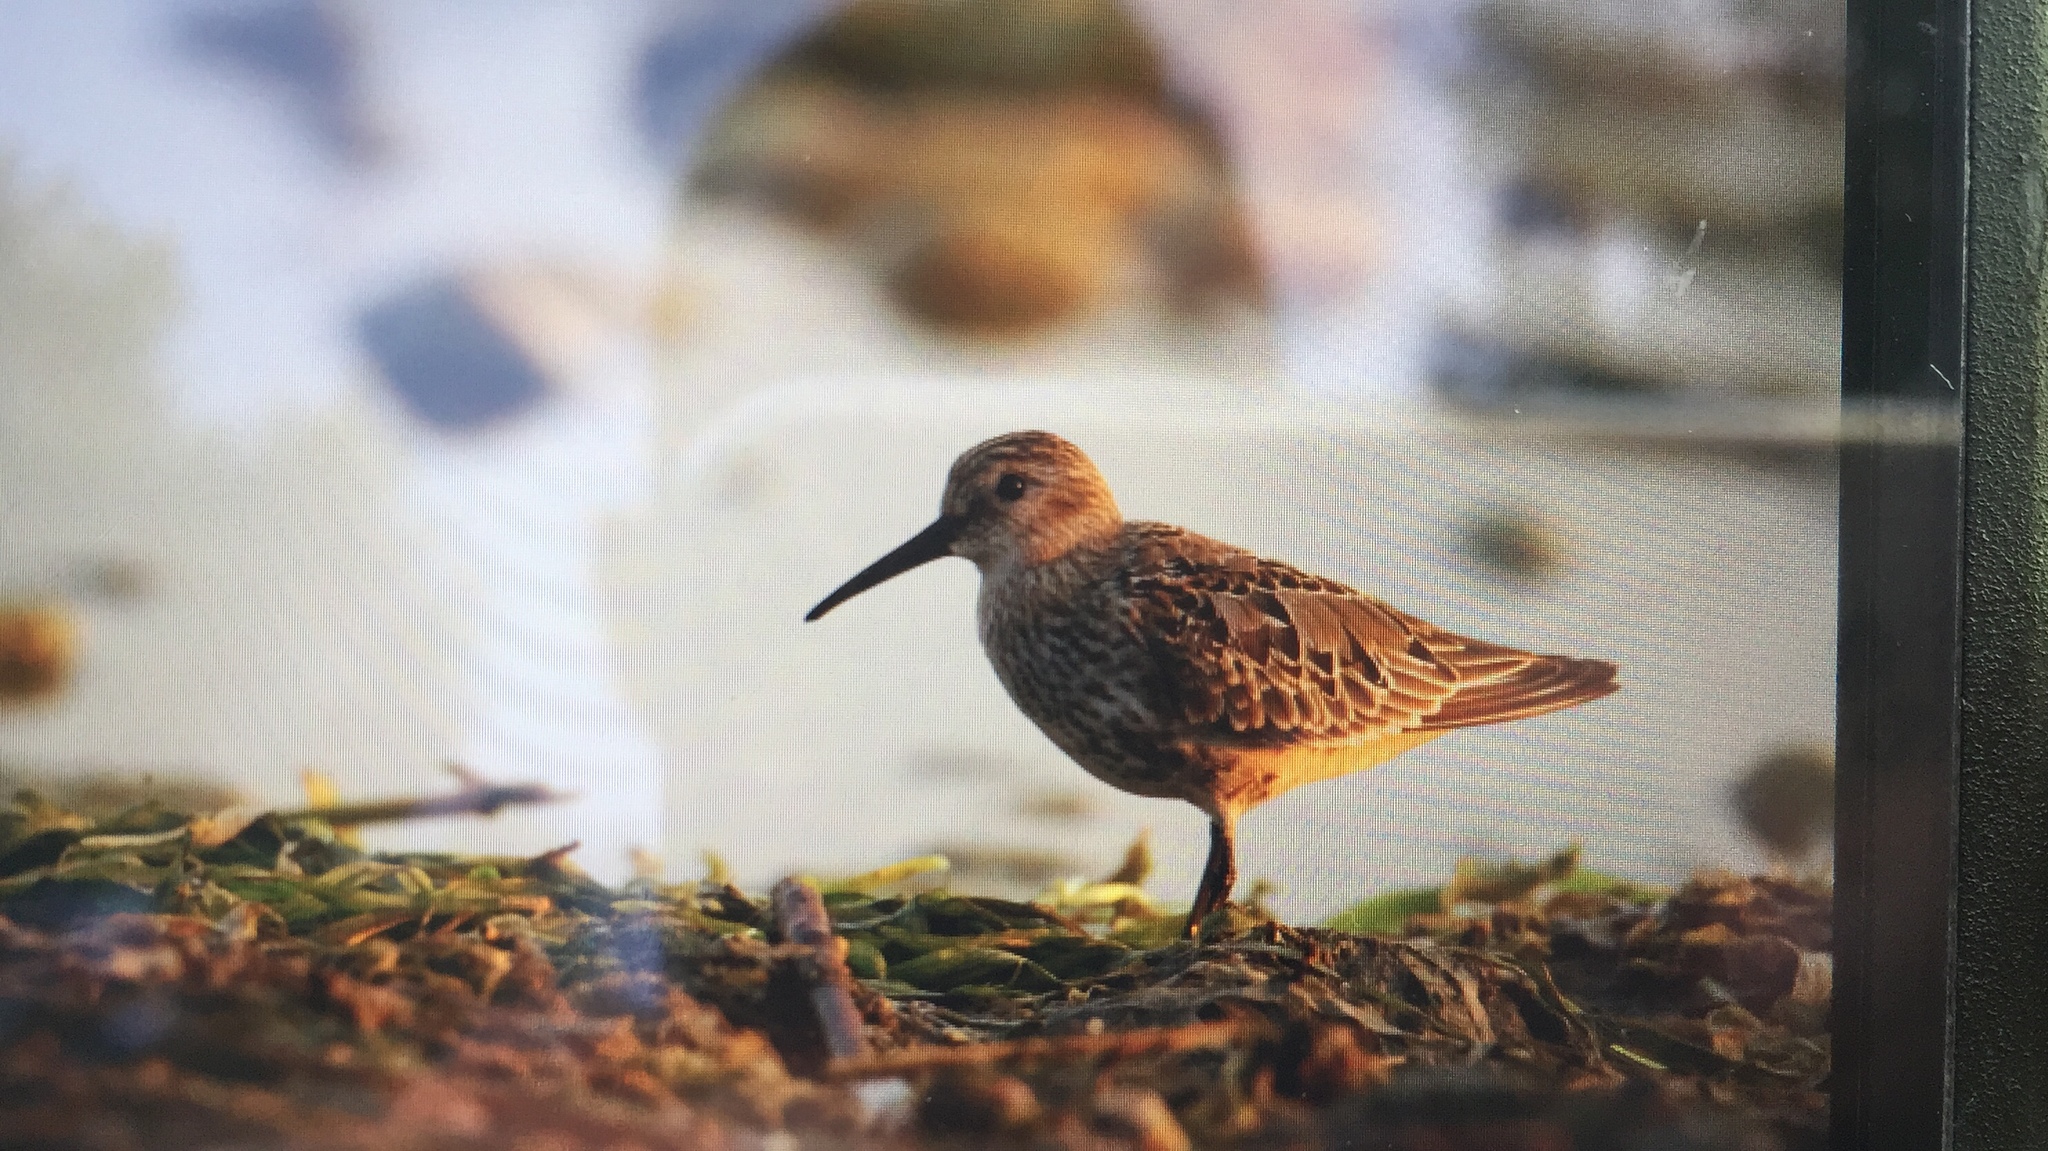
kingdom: Animalia
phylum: Chordata
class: Aves
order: Charadriiformes
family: Scolopacidae
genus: Calidris
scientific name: Calidris alpina
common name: Dunlin
